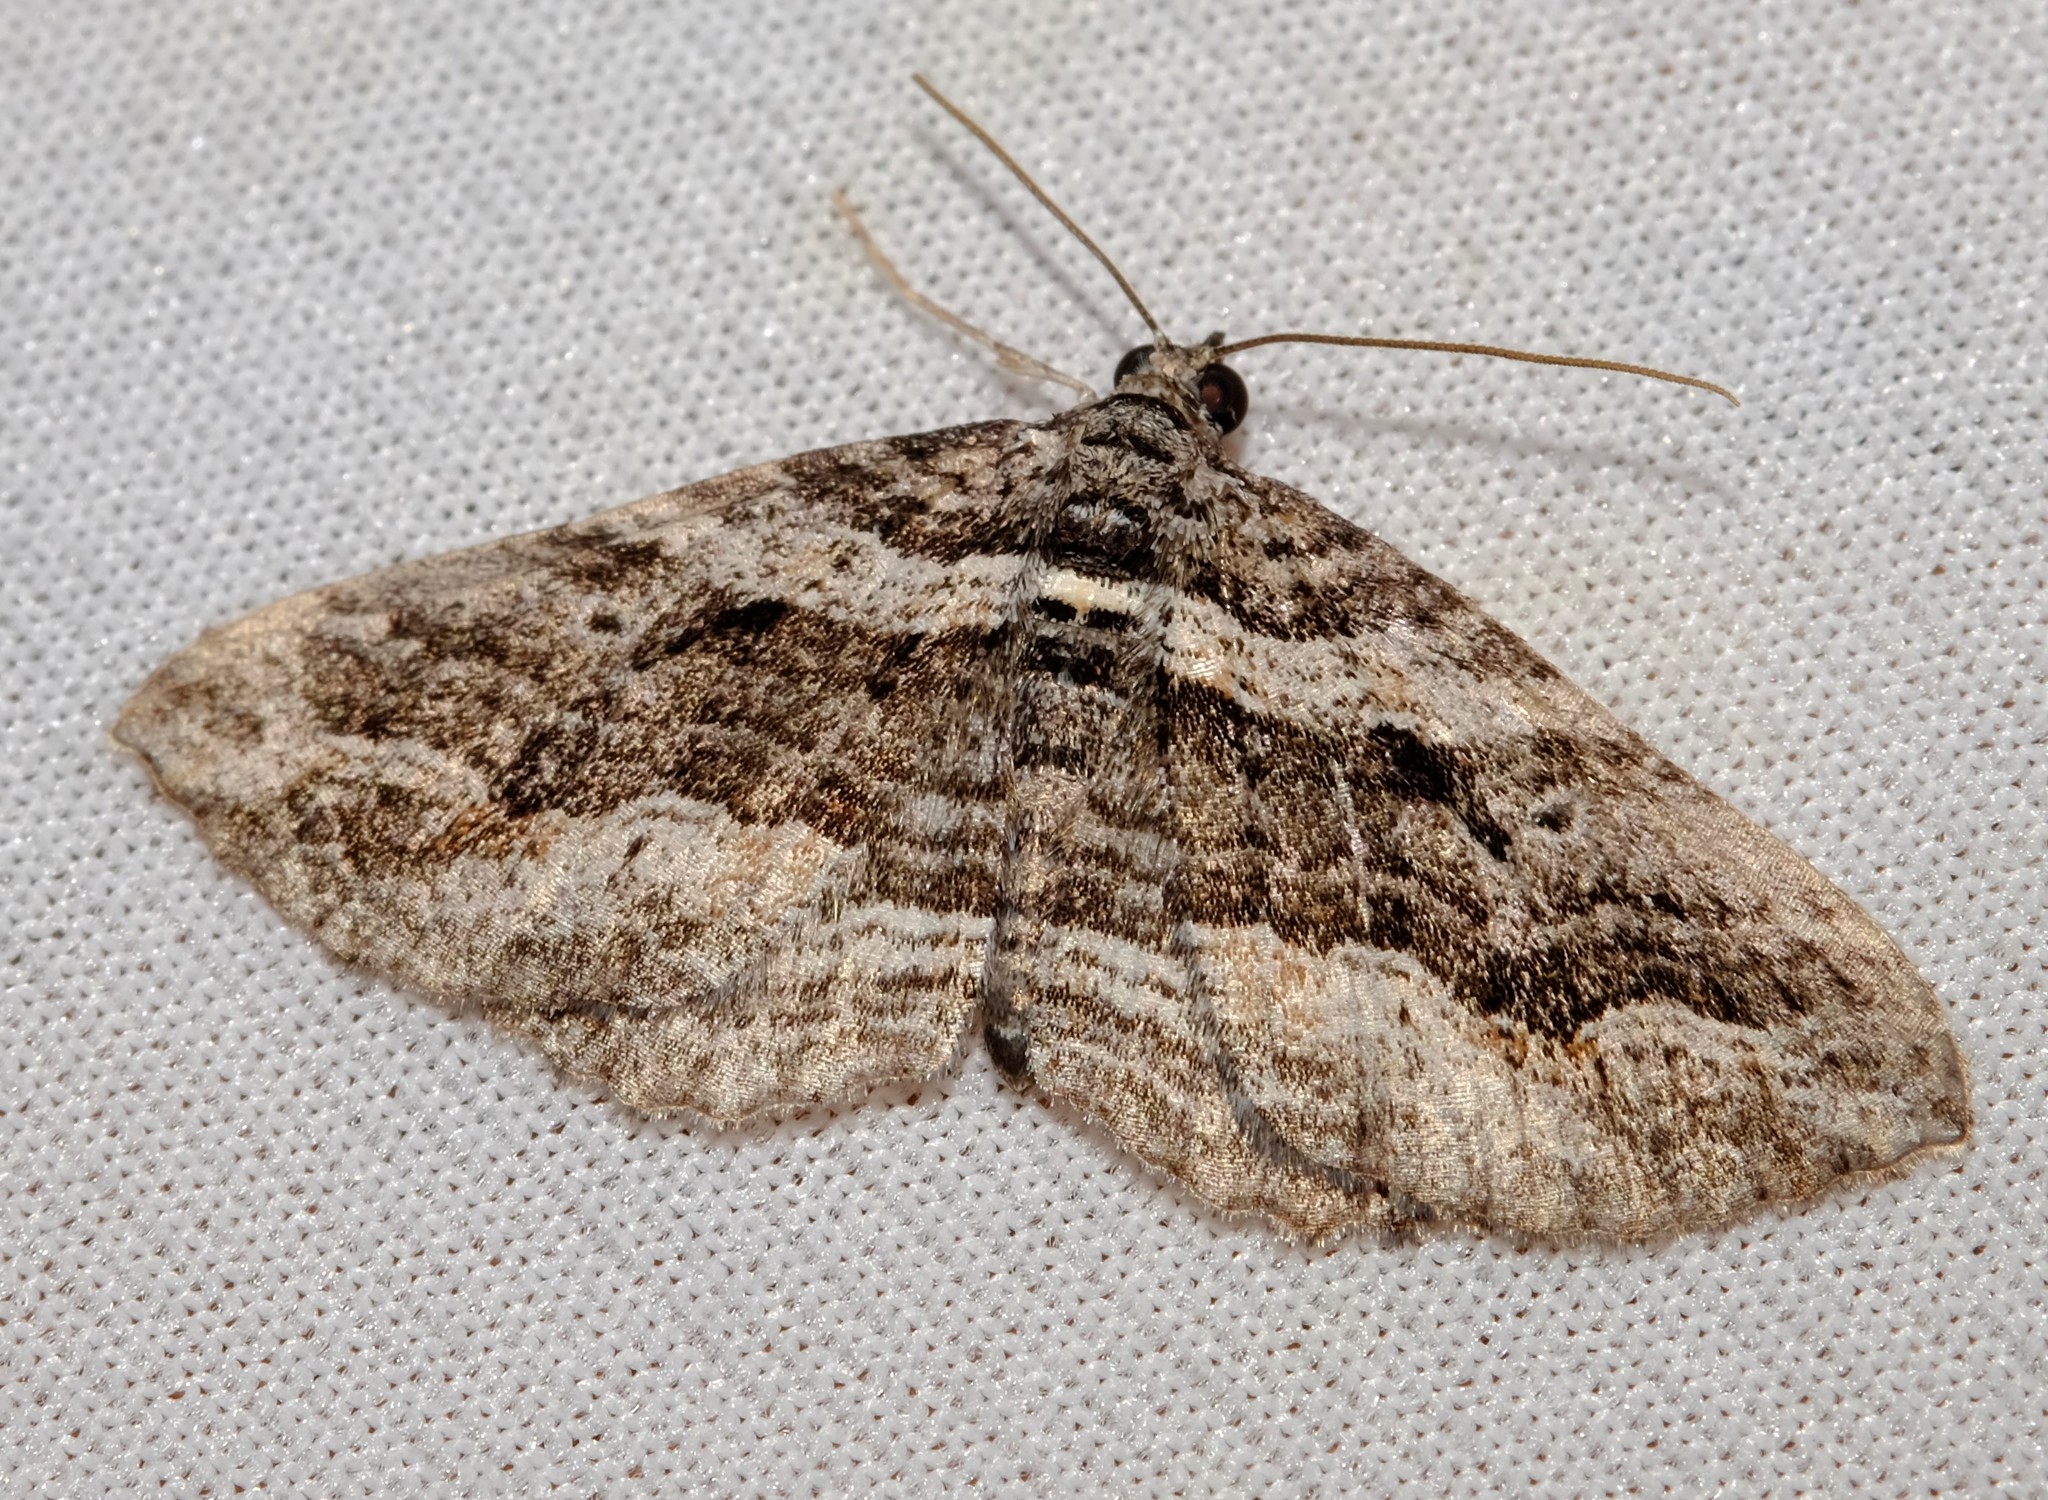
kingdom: Animalia
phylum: Arthropoda
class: Insecta
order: Lepidoptera
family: Geometridae
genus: Chrysolarentia
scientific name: Chrysolarentia severata
